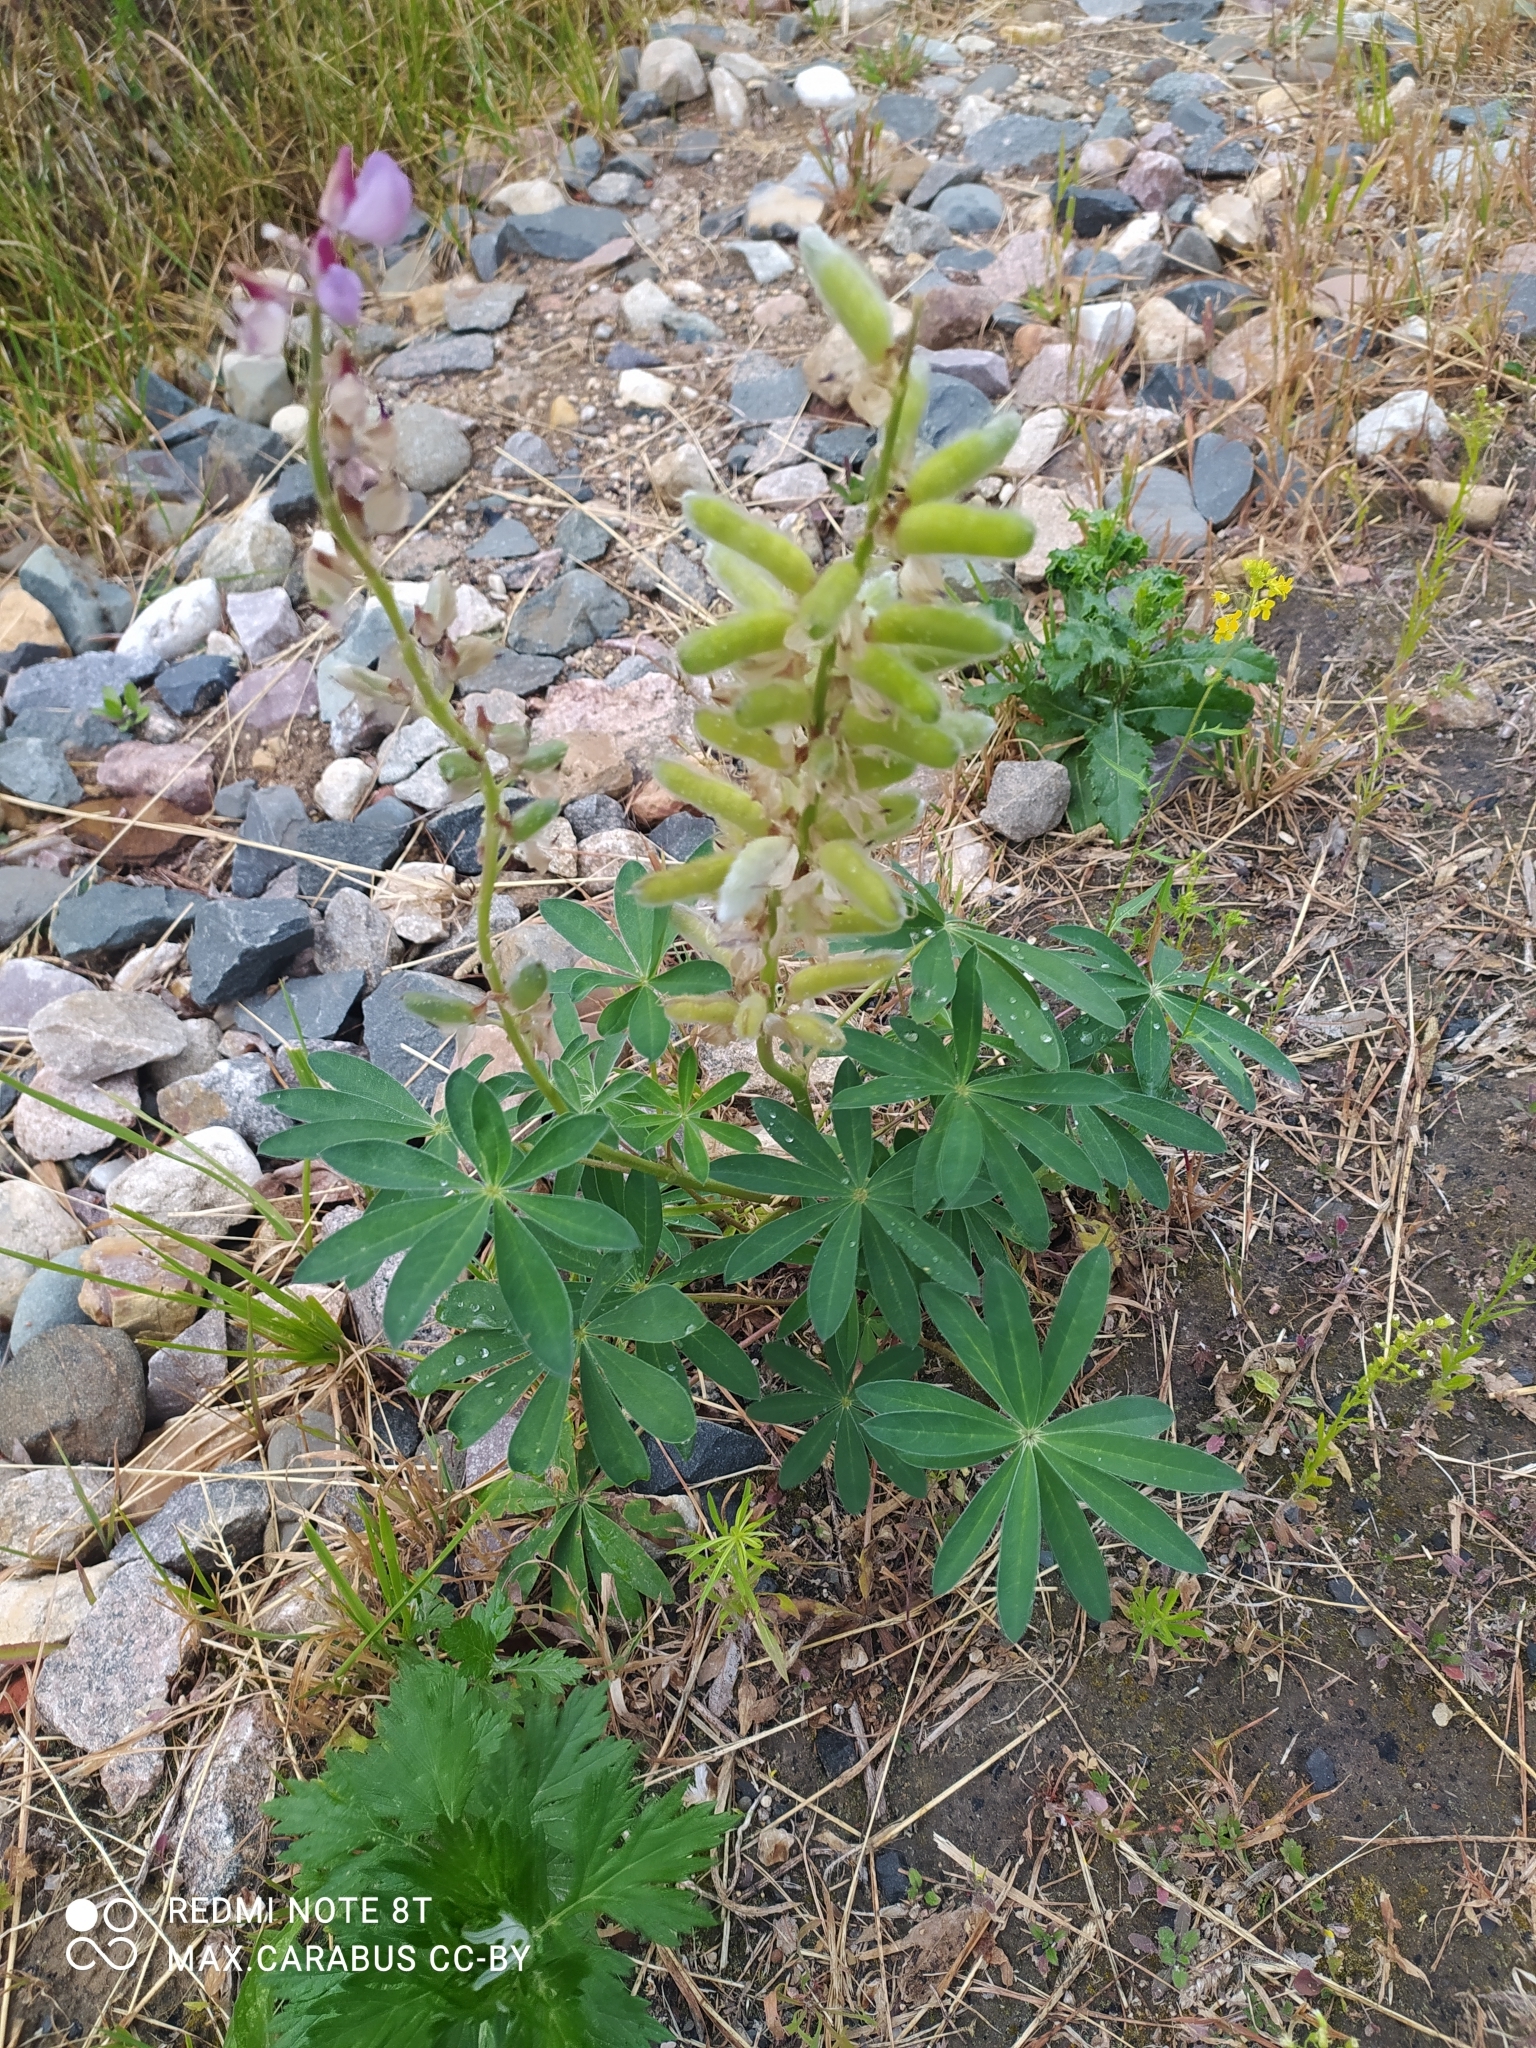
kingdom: Plantae
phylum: Tracheophyta
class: Magnoliopsida
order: Fabales
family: Fabaceae
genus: Lupinus
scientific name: Lupinus polyphyllus
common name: Garden lupin
